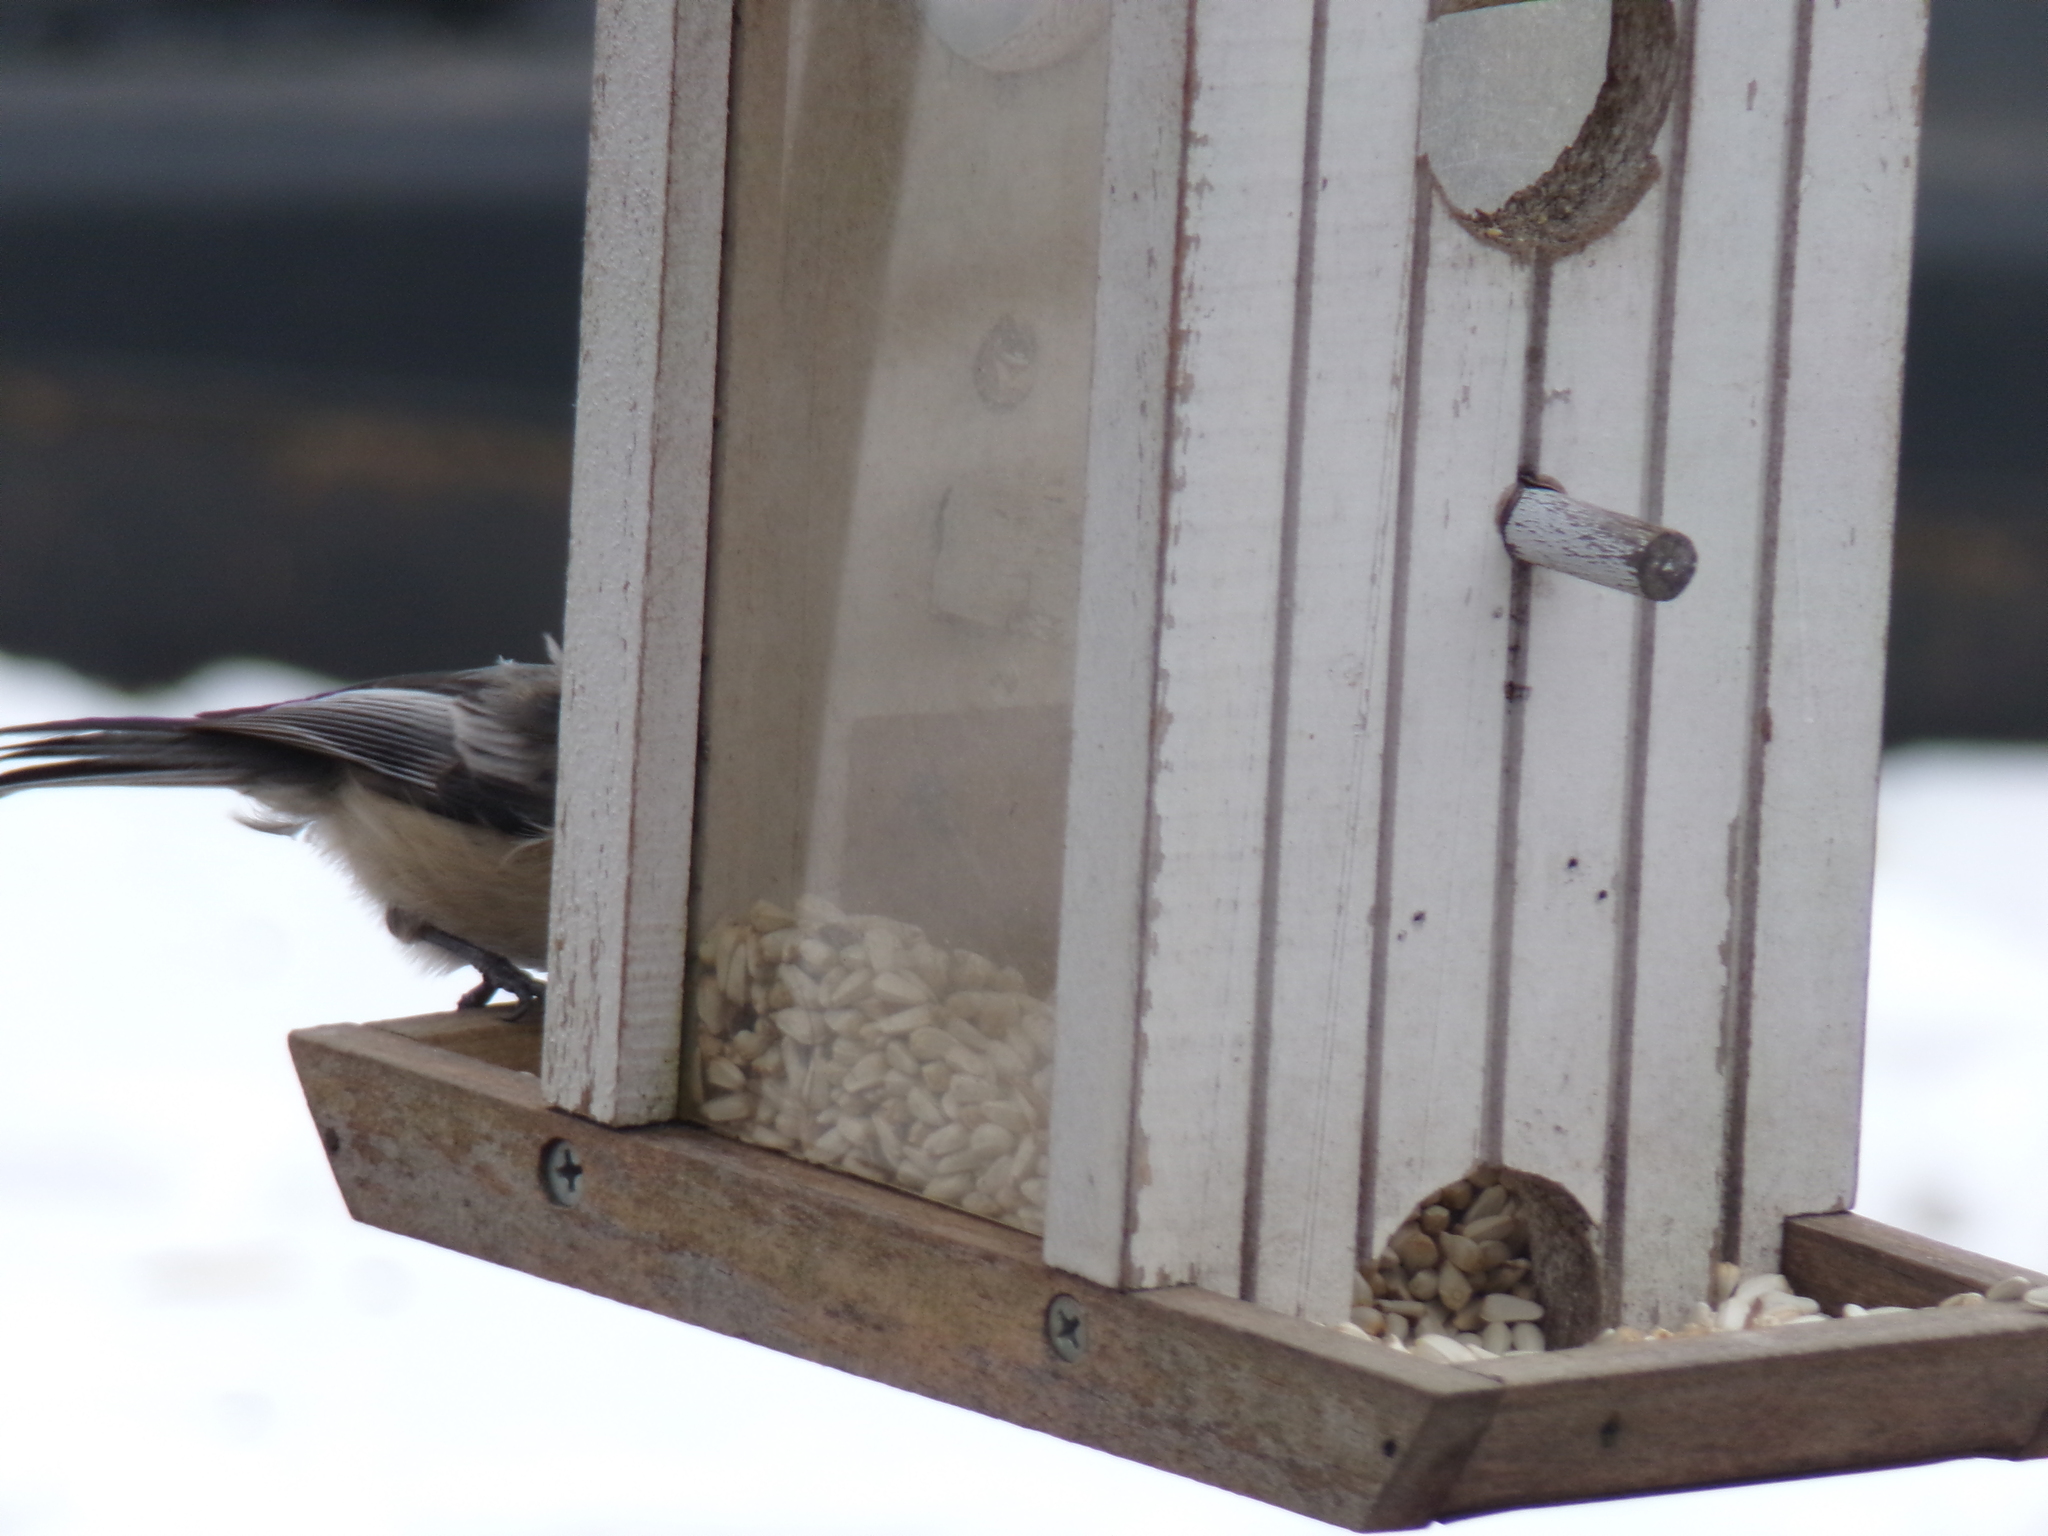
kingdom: Animalia
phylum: Chordata
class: Aves
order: Passeriformes
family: Paridae
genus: Poecile
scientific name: Poecile atricapillus
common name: Black-capped chickadee
